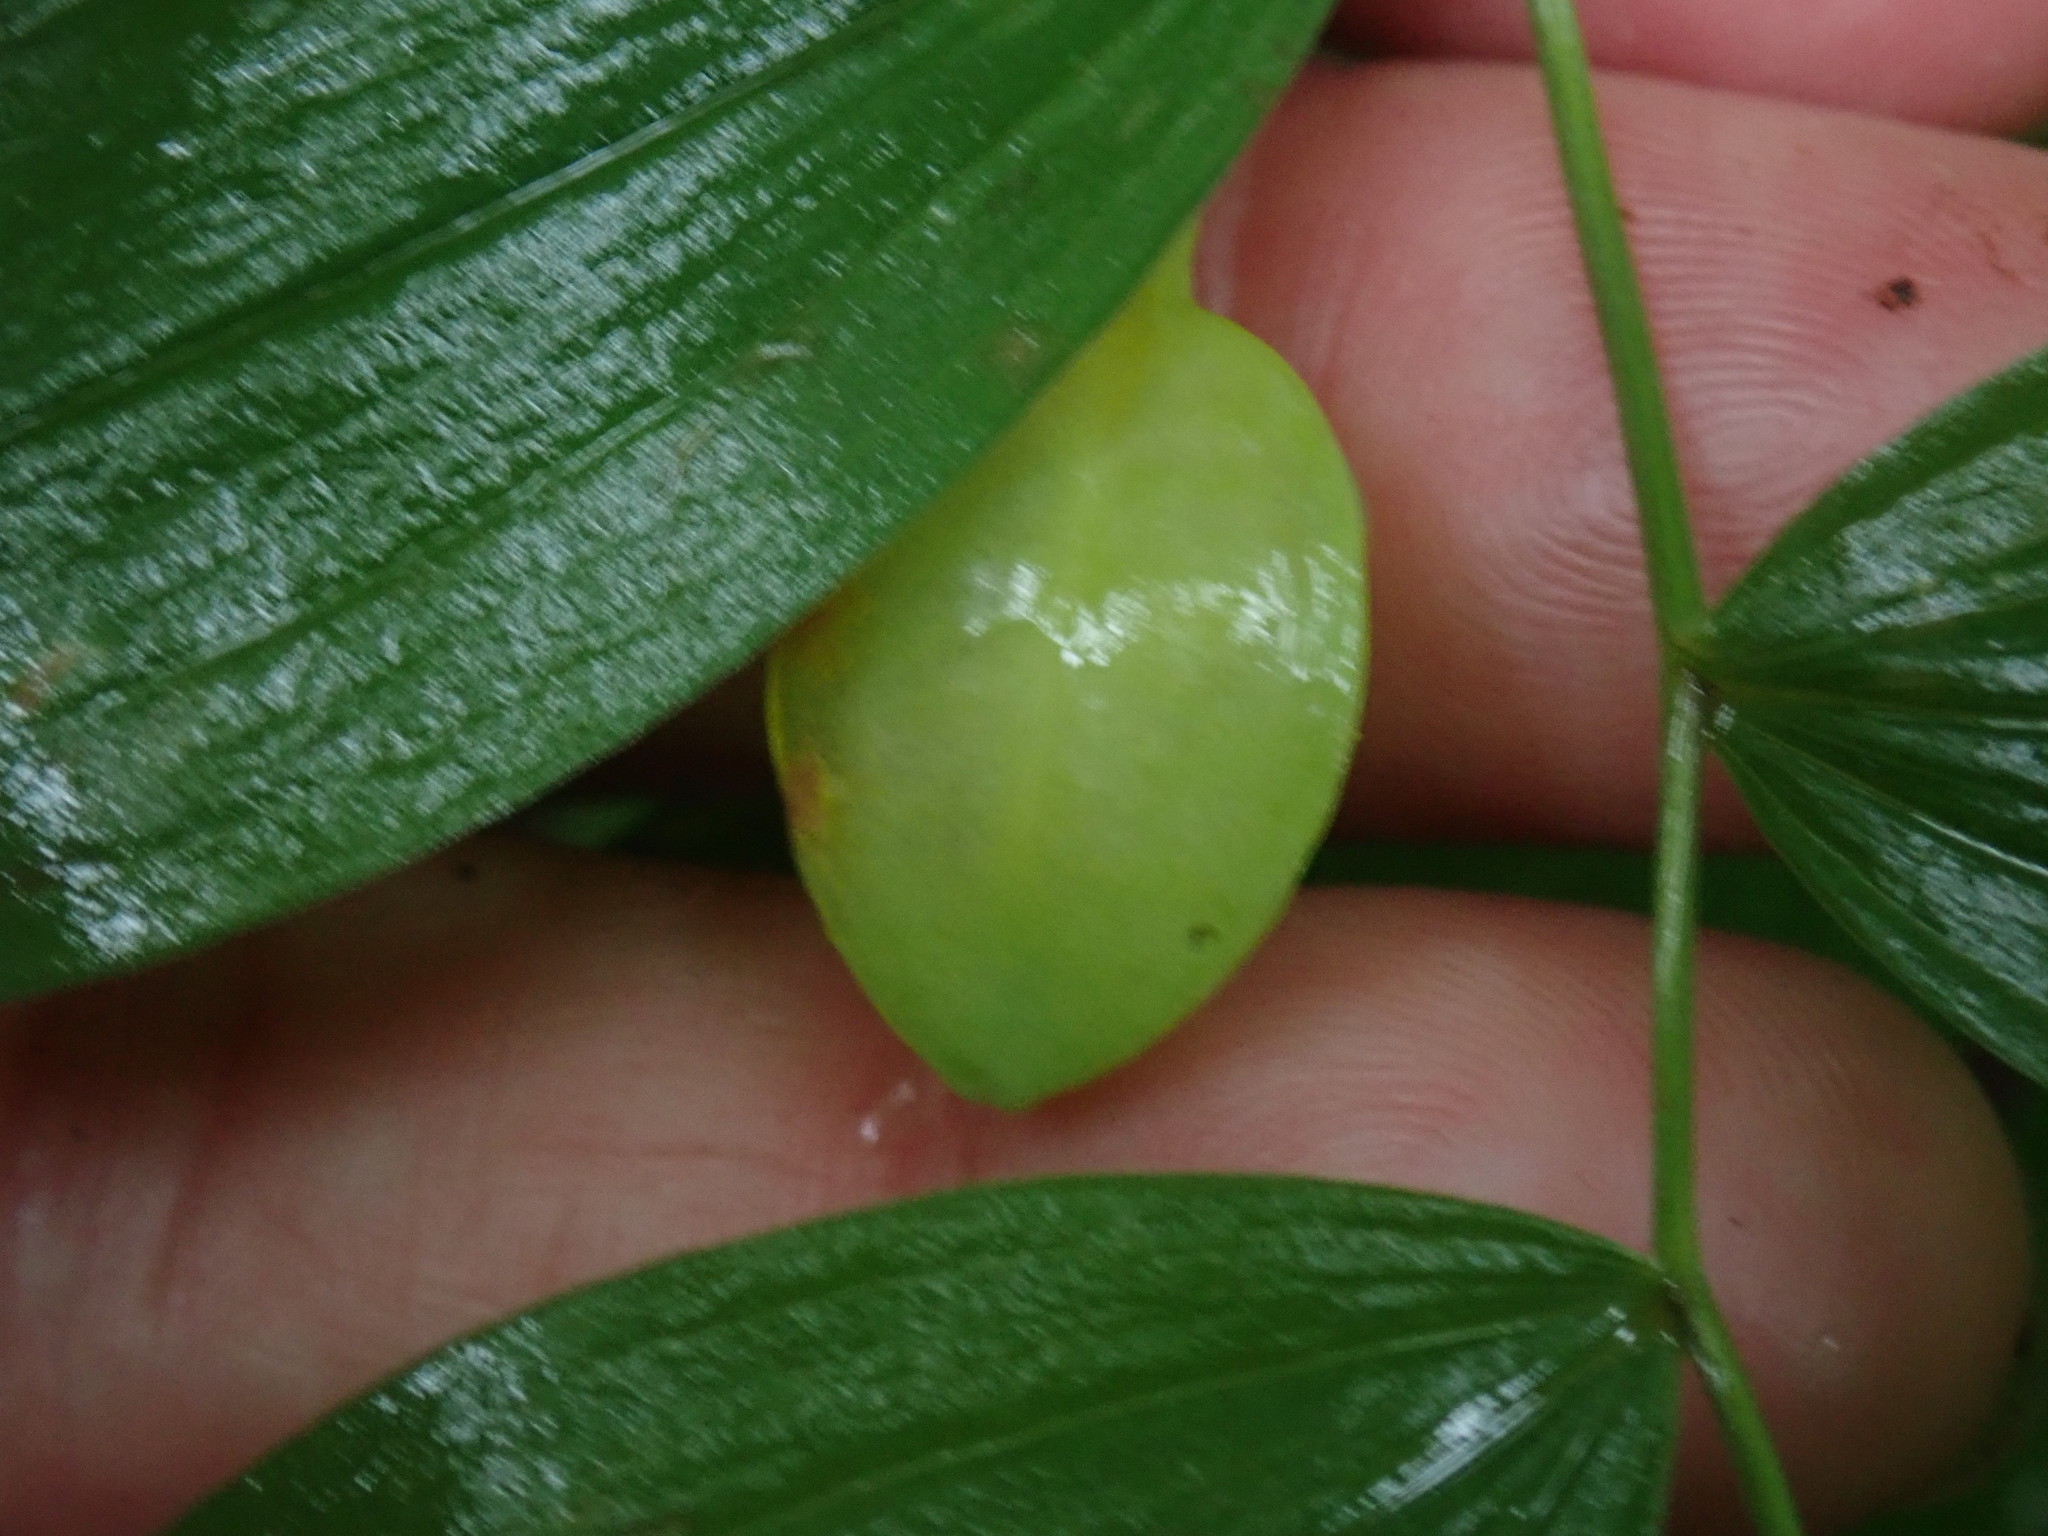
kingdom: Plantae
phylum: Tracheophyta
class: Liliopsida
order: Liliales
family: Colchicaceae
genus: Uvularia
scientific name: Uvularia sessilifolia
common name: Straw-lily
